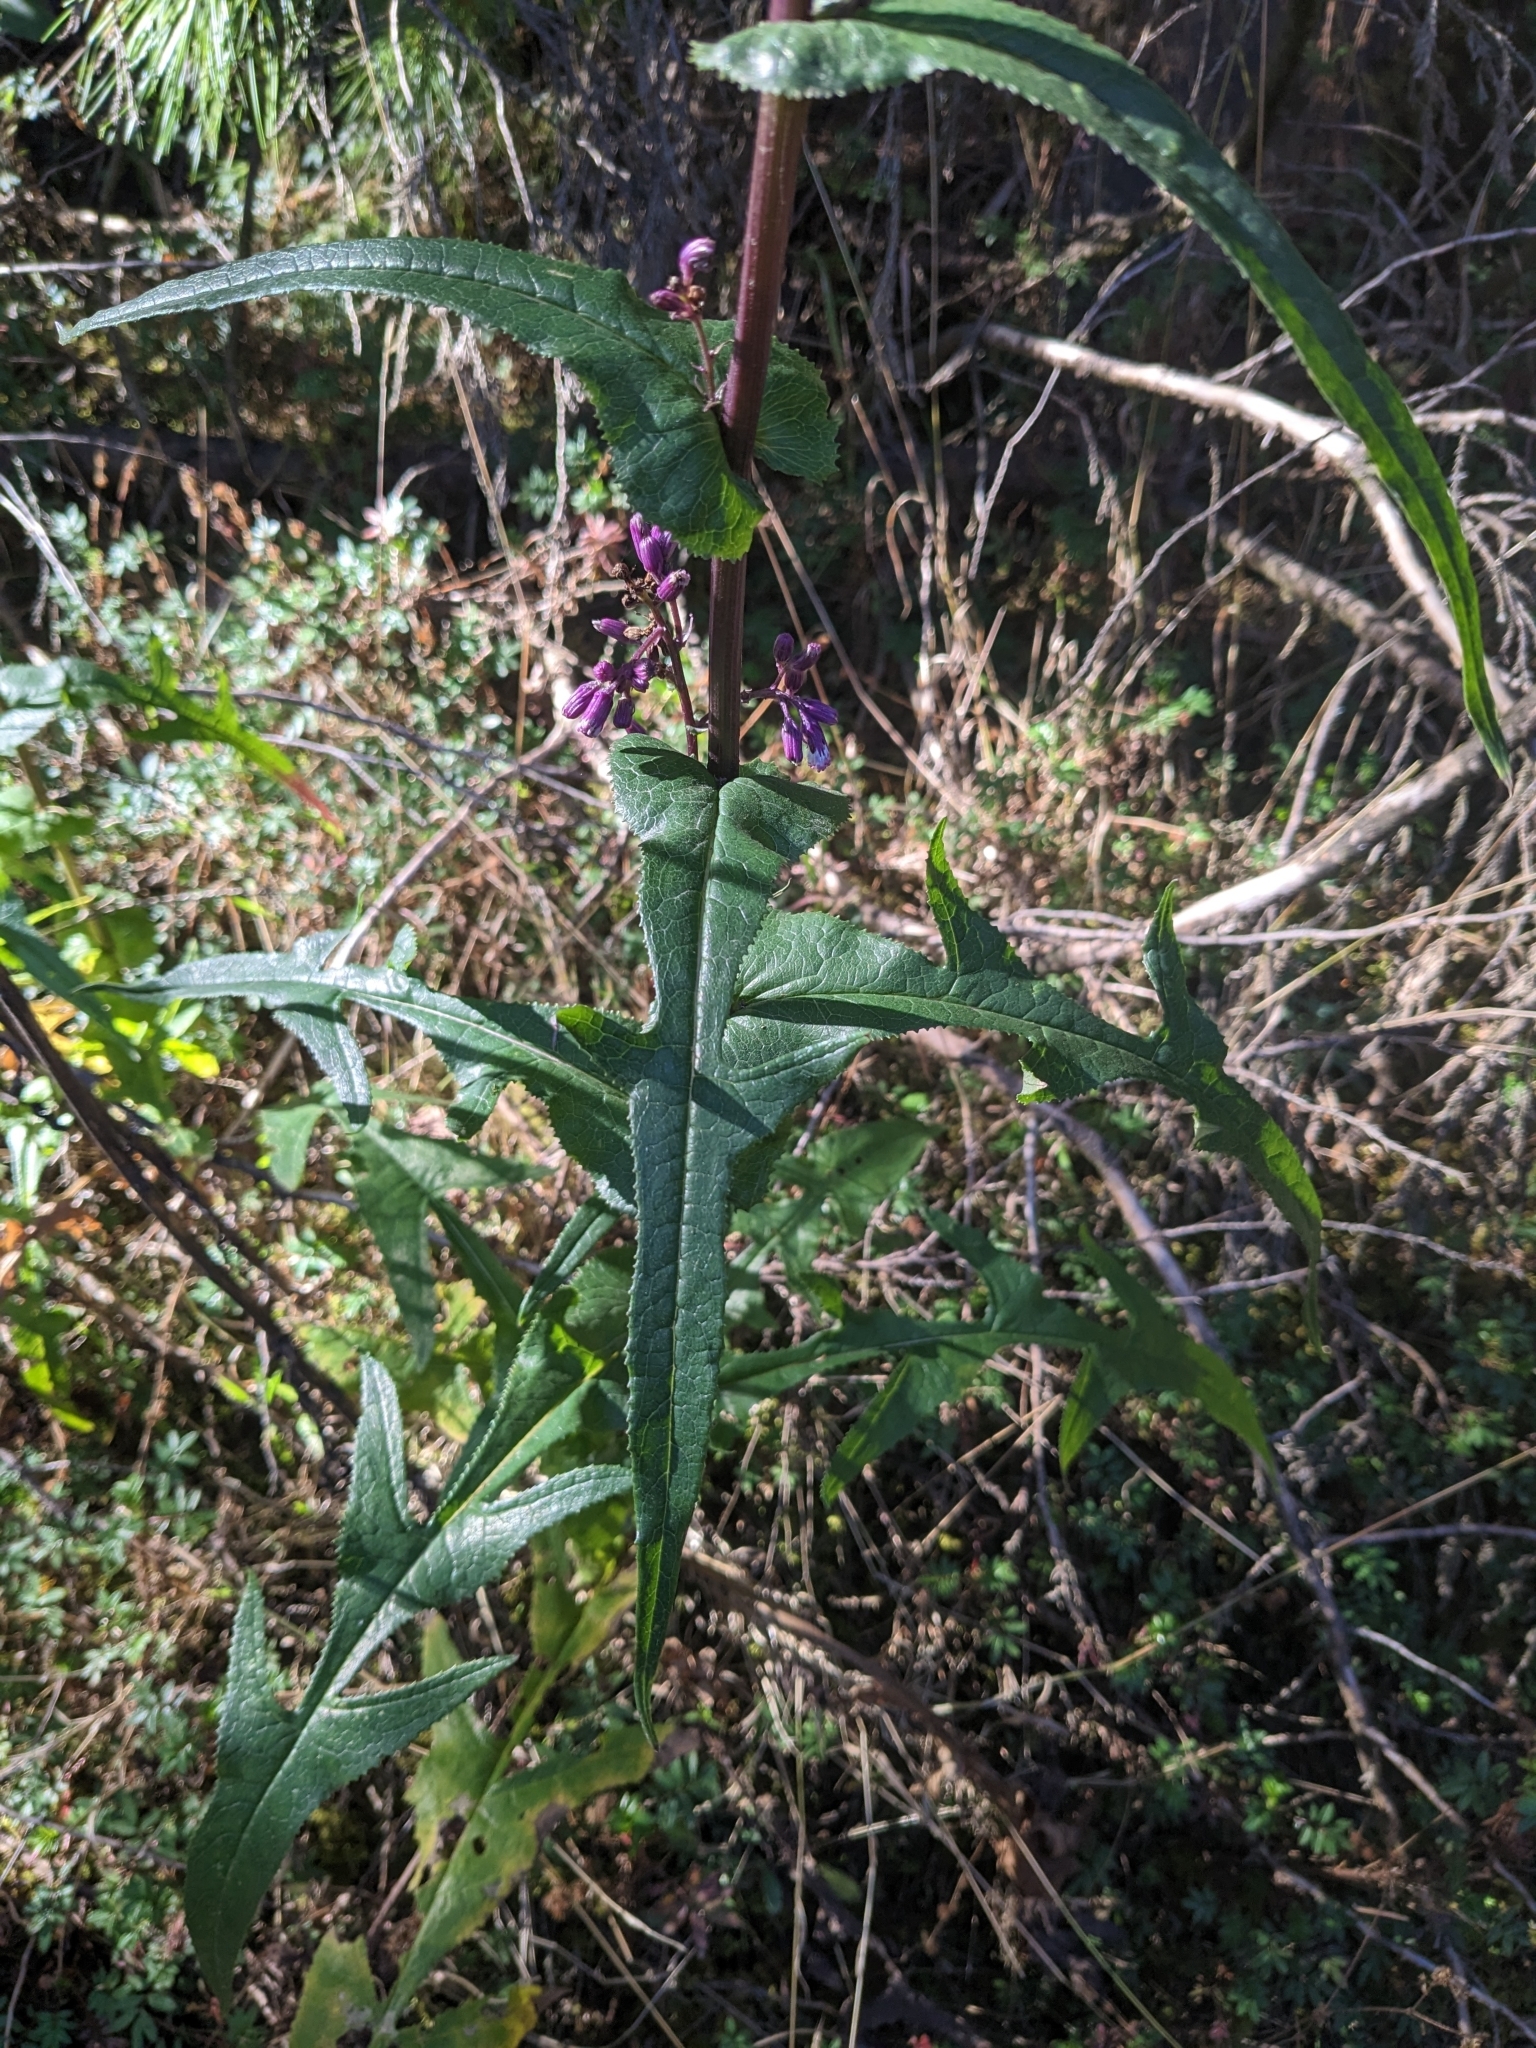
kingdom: Plantae
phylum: Tracheophyta
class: Magnoliopsida
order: Asterales
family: Asteraceae
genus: Senecio
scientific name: Senecio callosus
